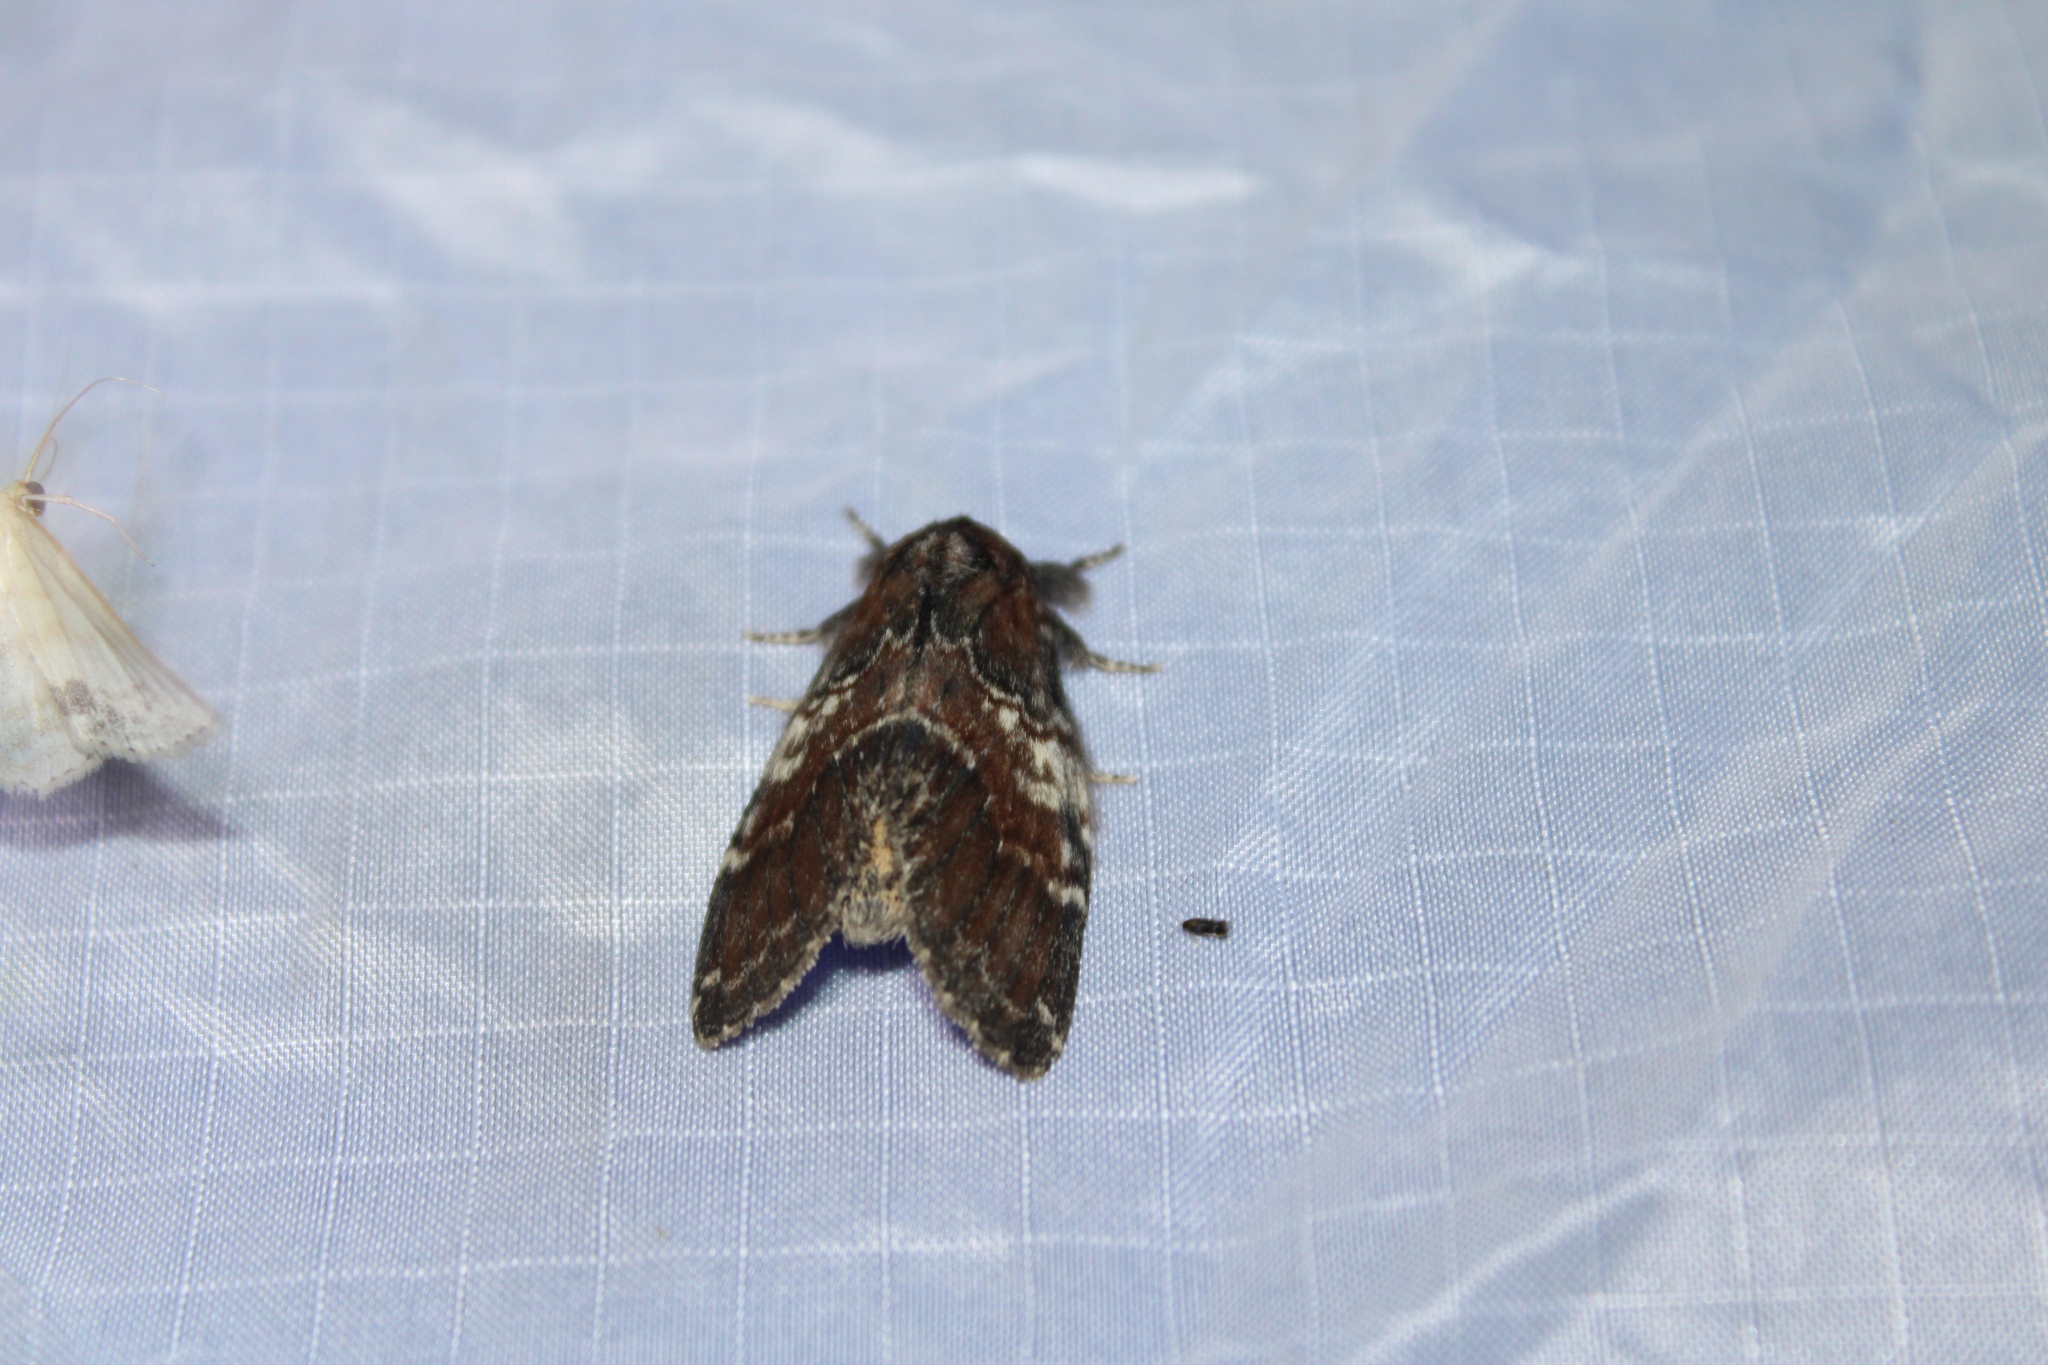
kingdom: Animalia
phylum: Arthropoda
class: Insecta
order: Lepidoptera
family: Notodontidae
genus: Peridea
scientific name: Peridea ferruginea
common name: Chocolate prominent
